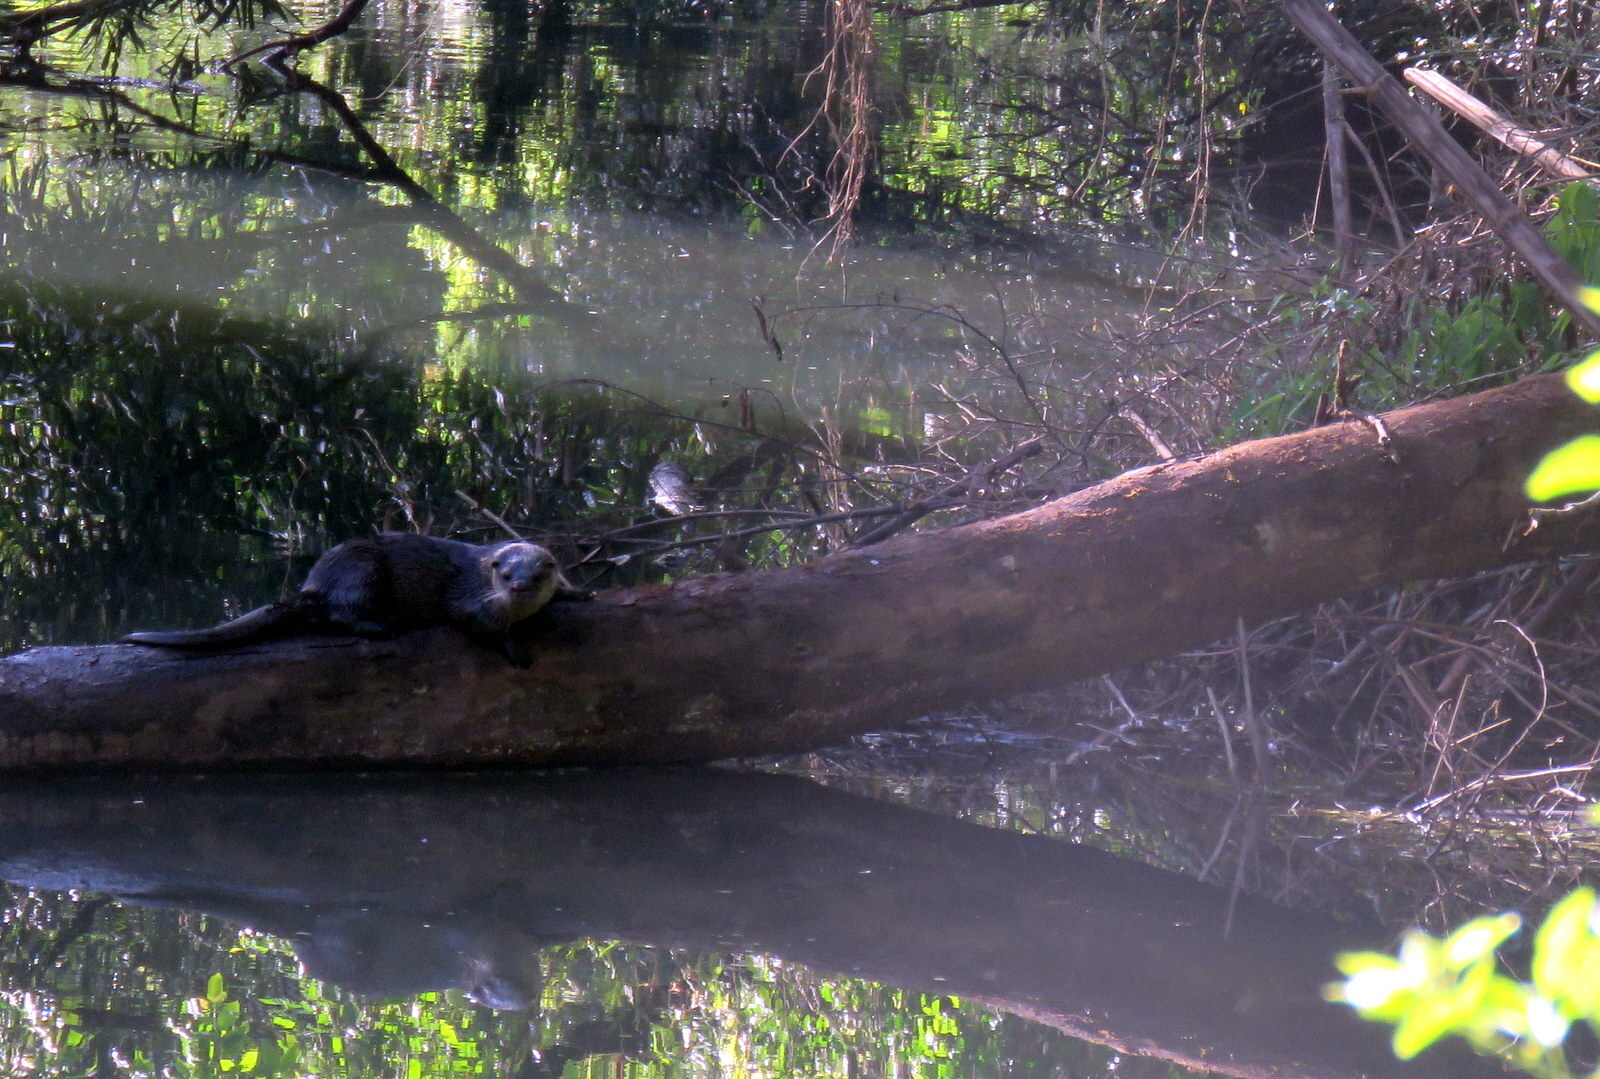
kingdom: Animalia
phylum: Chordata
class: Mammalia
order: Carnivora
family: Mustelidae
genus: Lontra
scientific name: Lontra longicaudis
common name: Neotropical otter
